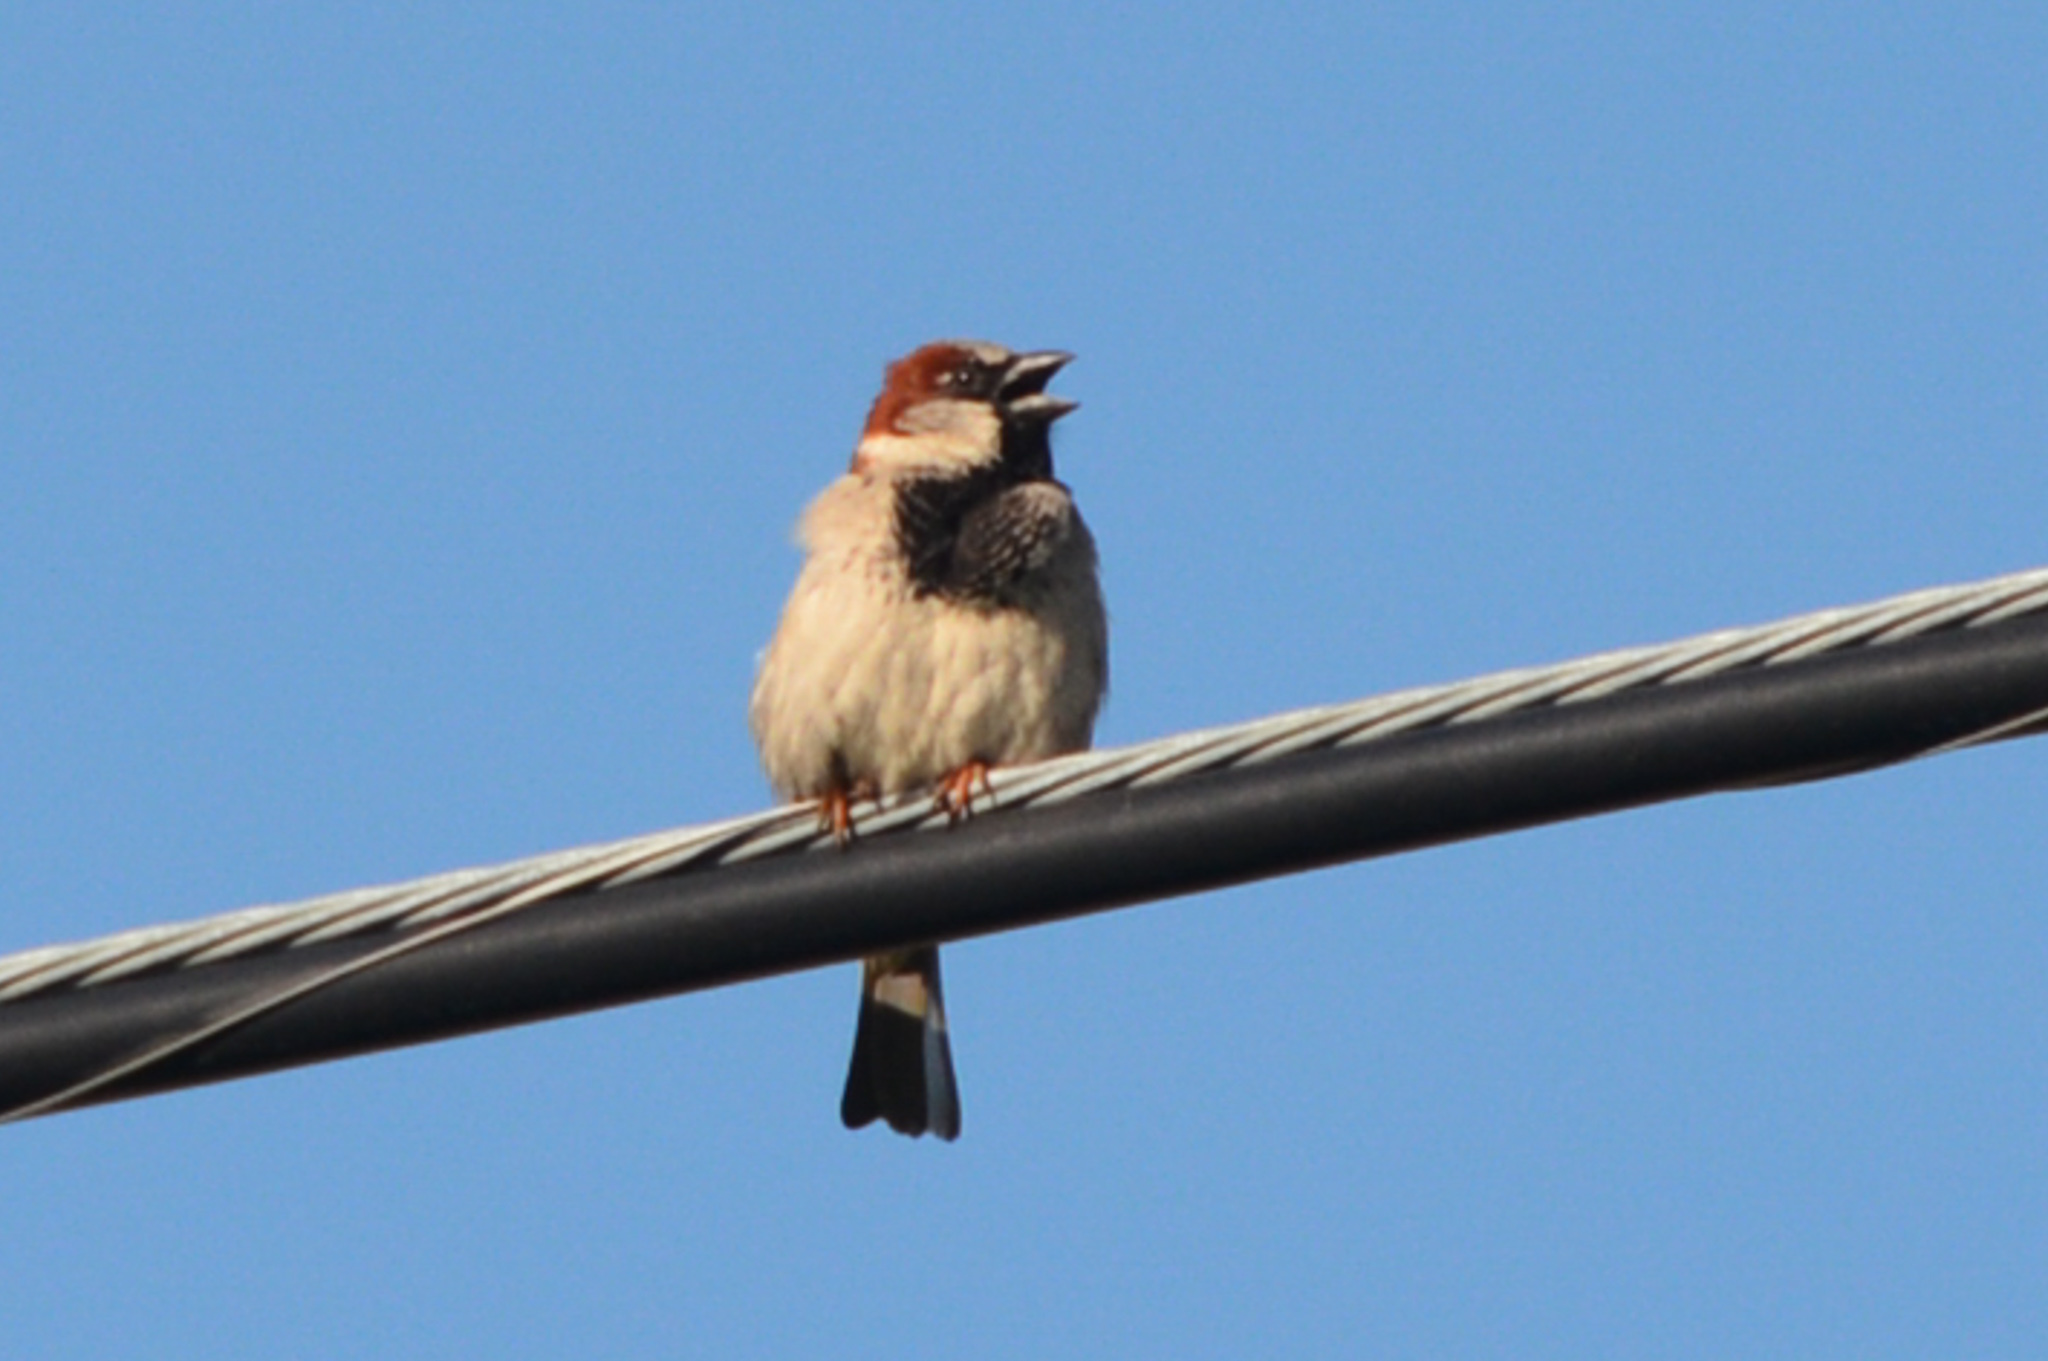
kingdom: Animalia
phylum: Chordata
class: Aves
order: Passeriformes
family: Passeridae
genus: Passer
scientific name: Passer domesticus
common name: House sparrow
